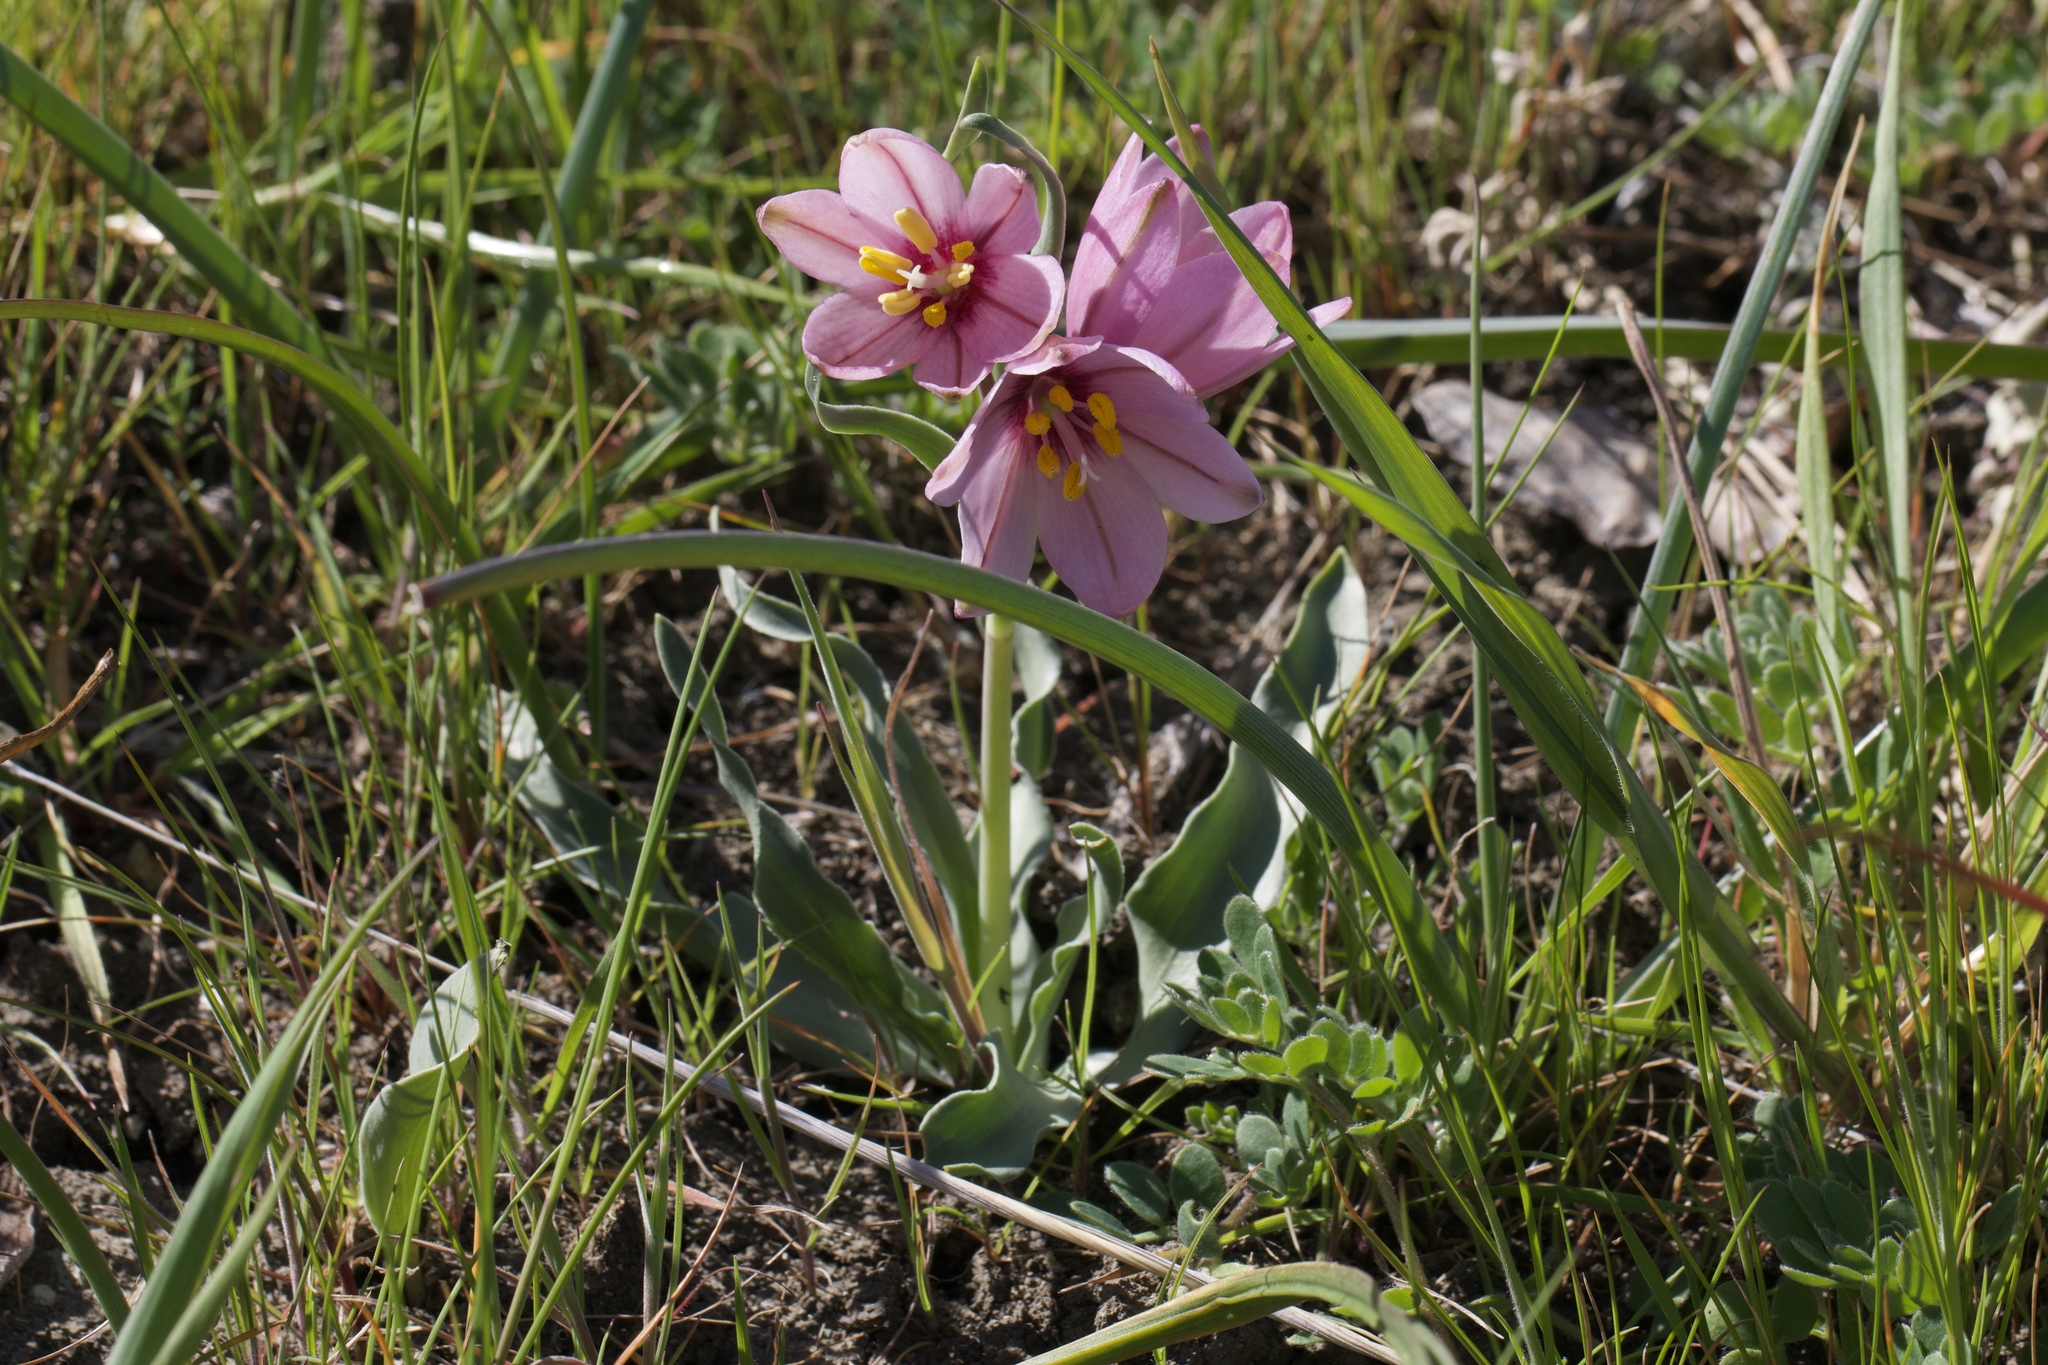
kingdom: Plantae
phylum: Tracheophyta
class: Liliopsida
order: Liliales
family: Liliaceae
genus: Fritillaria
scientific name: Fritillaria pluriflora
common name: Adobe-lily
